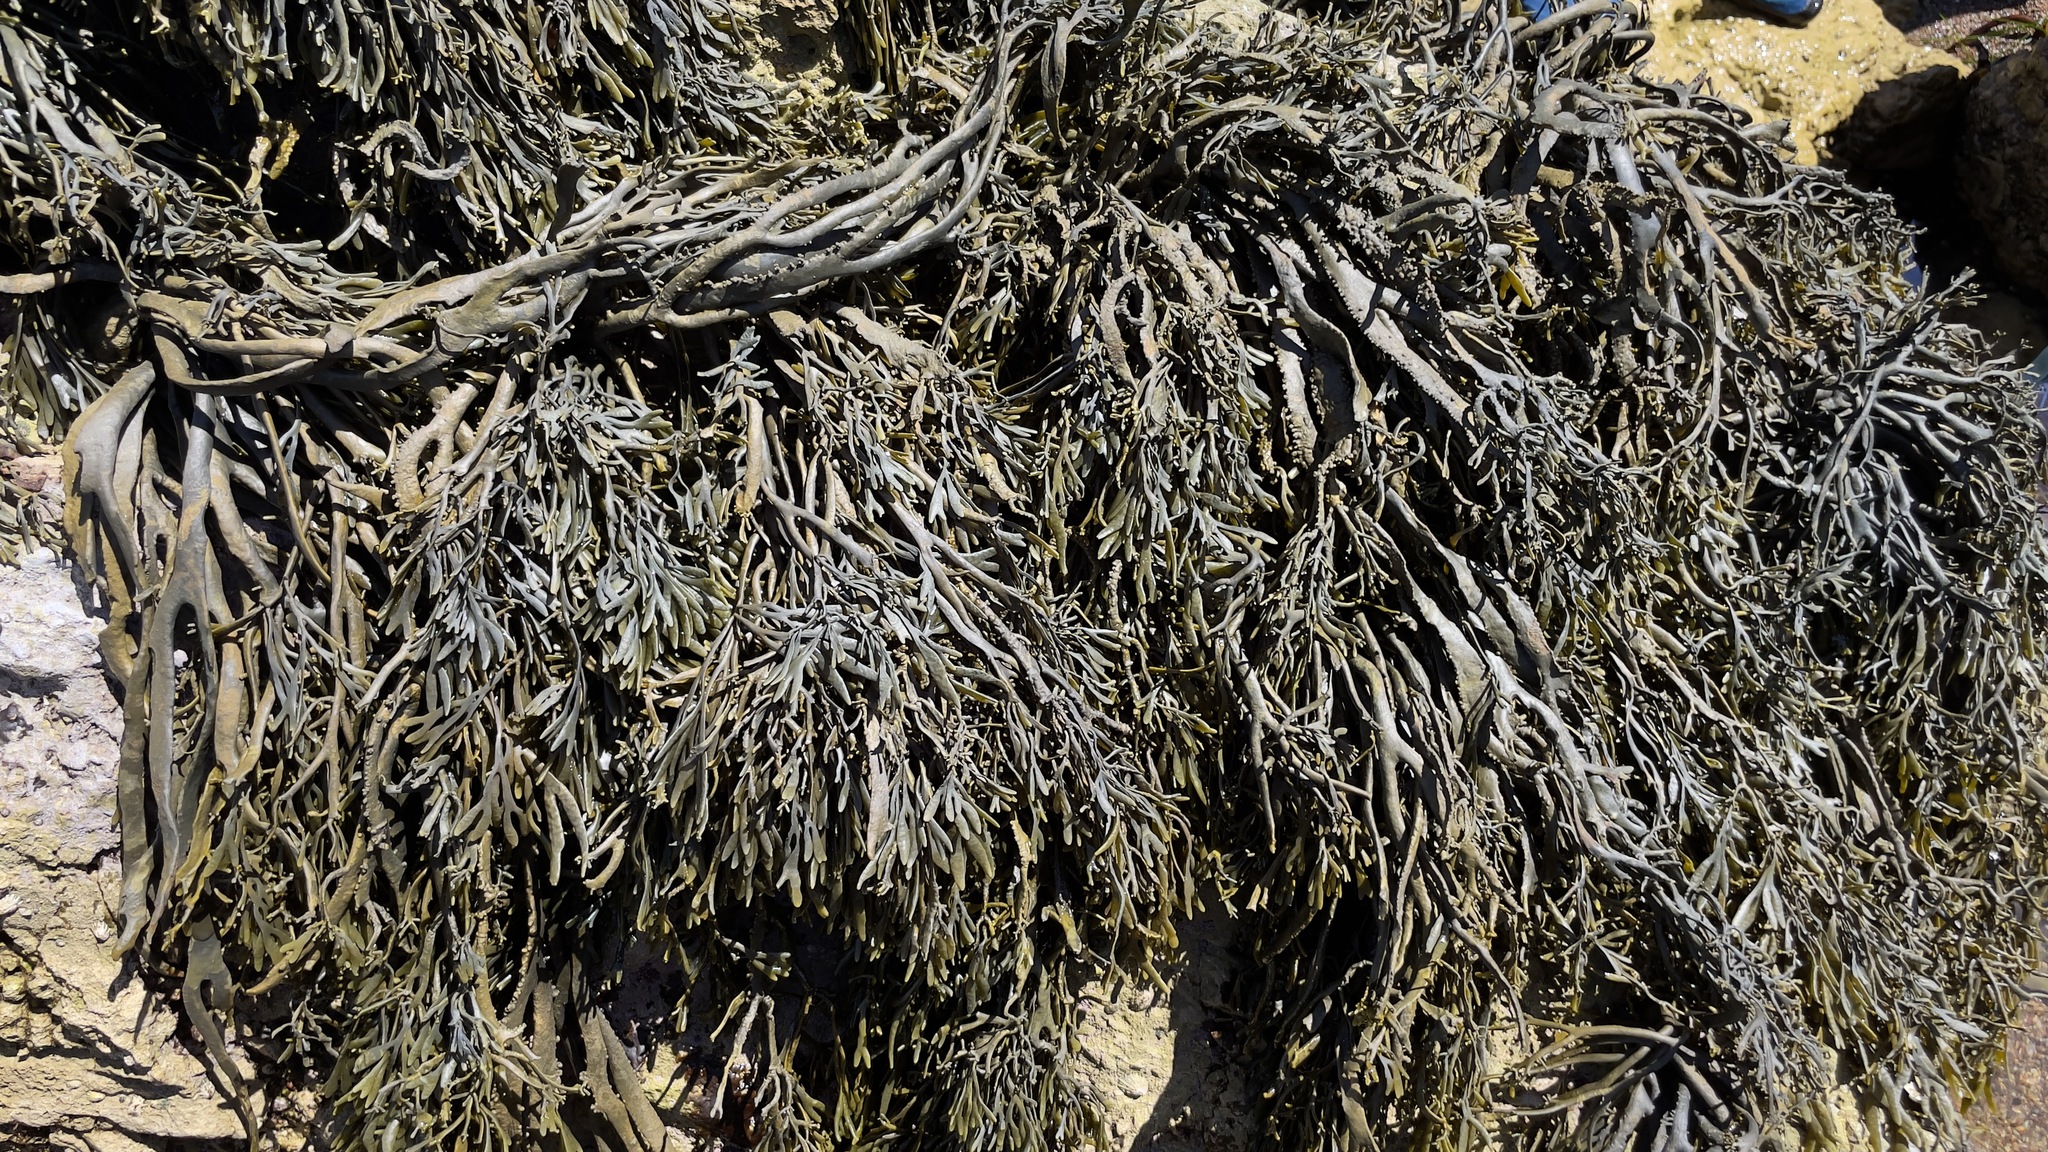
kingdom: Chromista
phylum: Ochrophyta
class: Phaeophyceae
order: Fucales
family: Fucaceae
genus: Silvetia
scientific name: Silvetia
